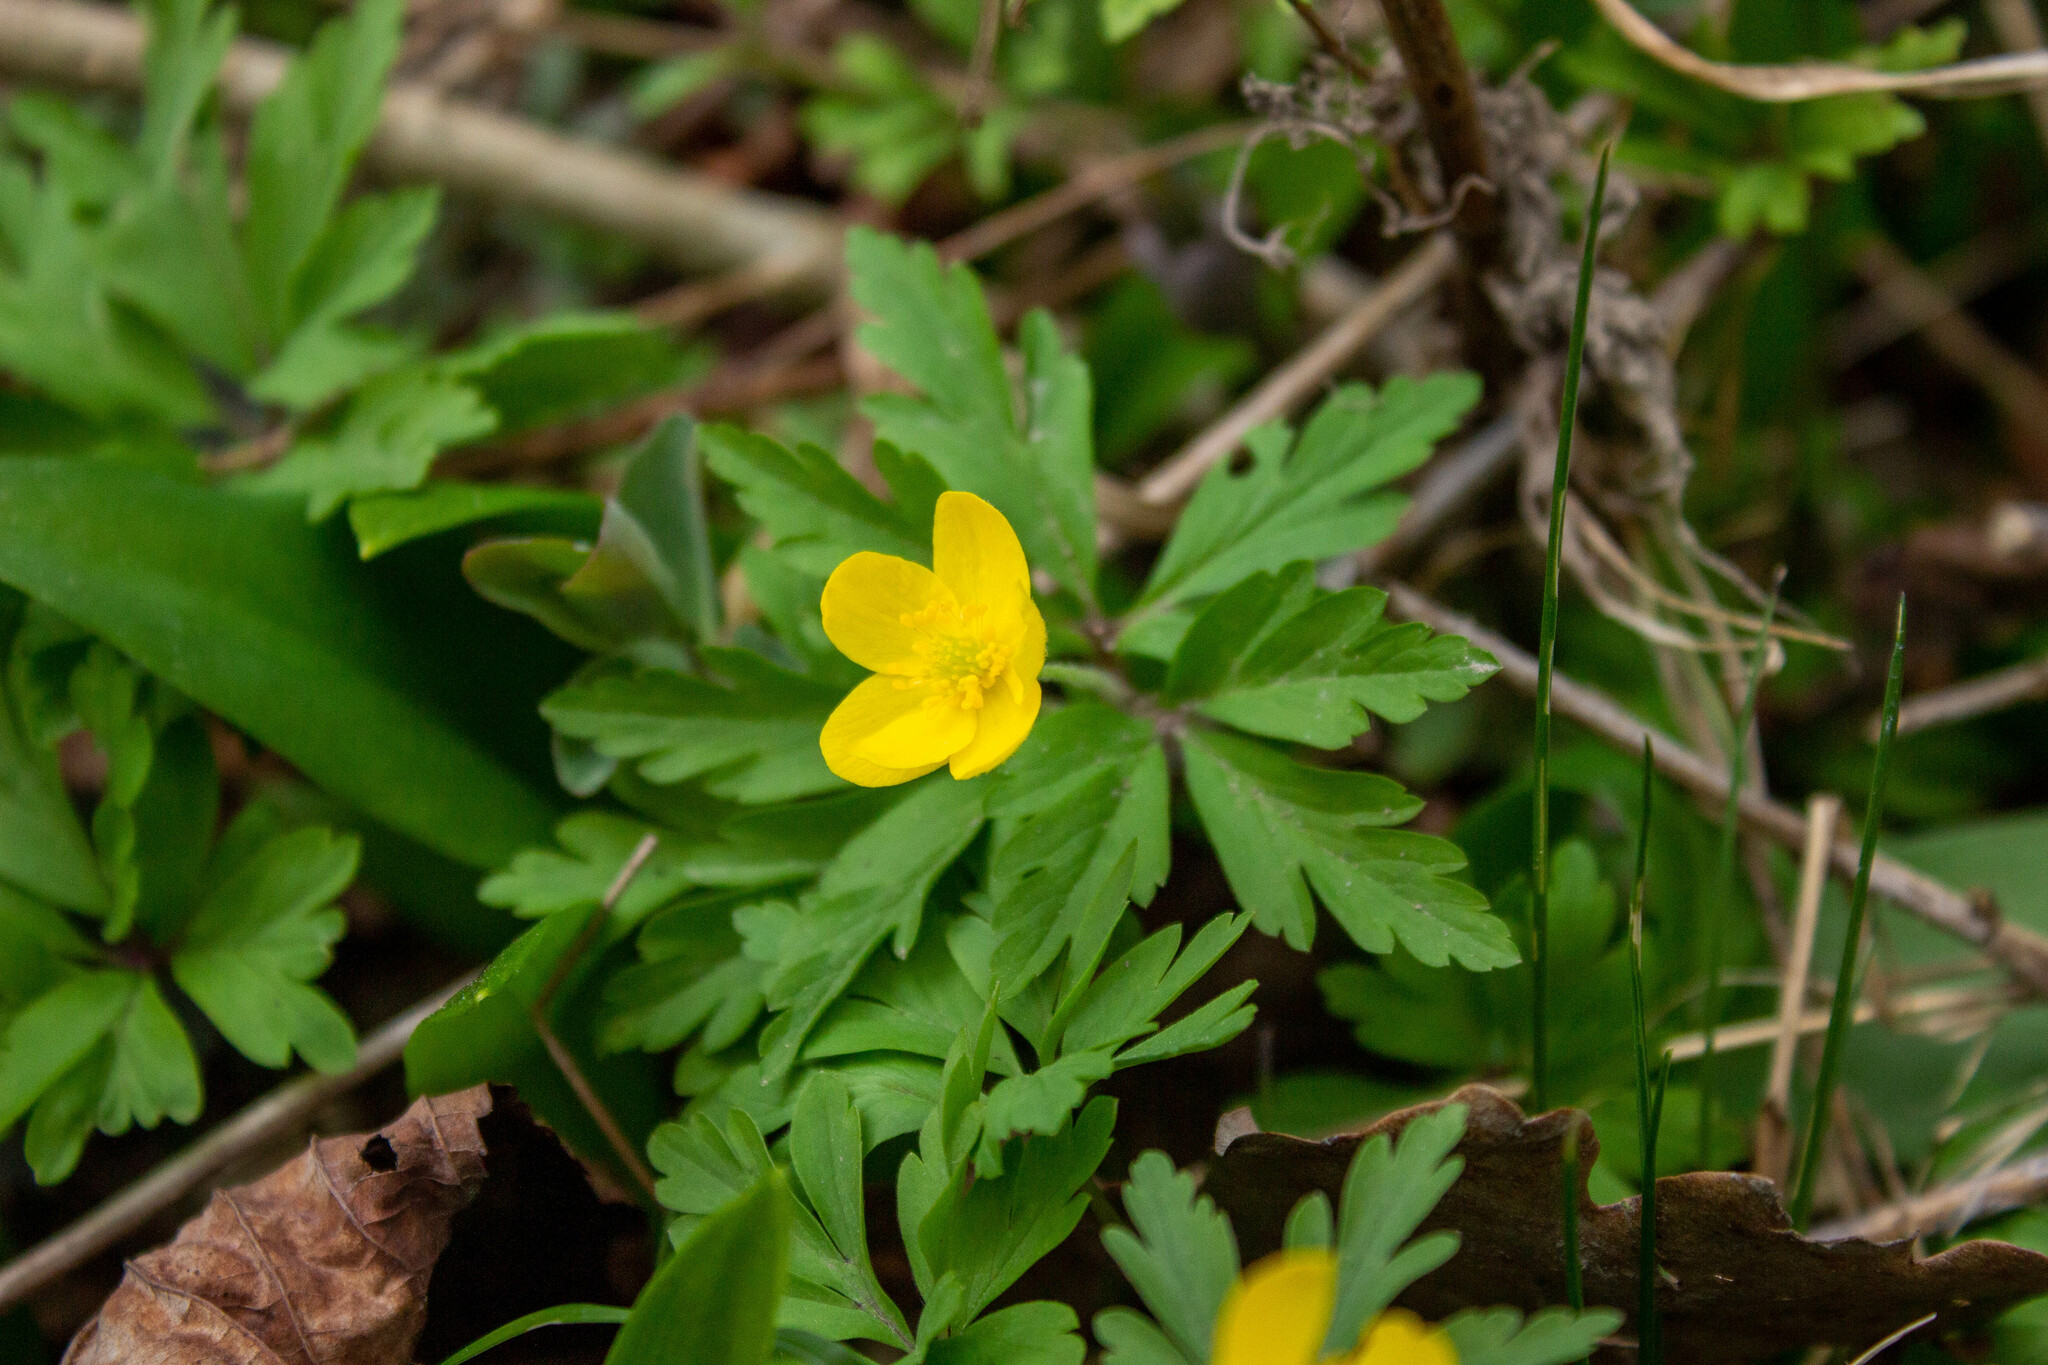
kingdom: Plantae
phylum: Tracheophyta
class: Magnoliopsida
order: Ranunculales
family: Ranunculaceae
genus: Anemone
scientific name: Anemone ranunculoides
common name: Yellow anemone
